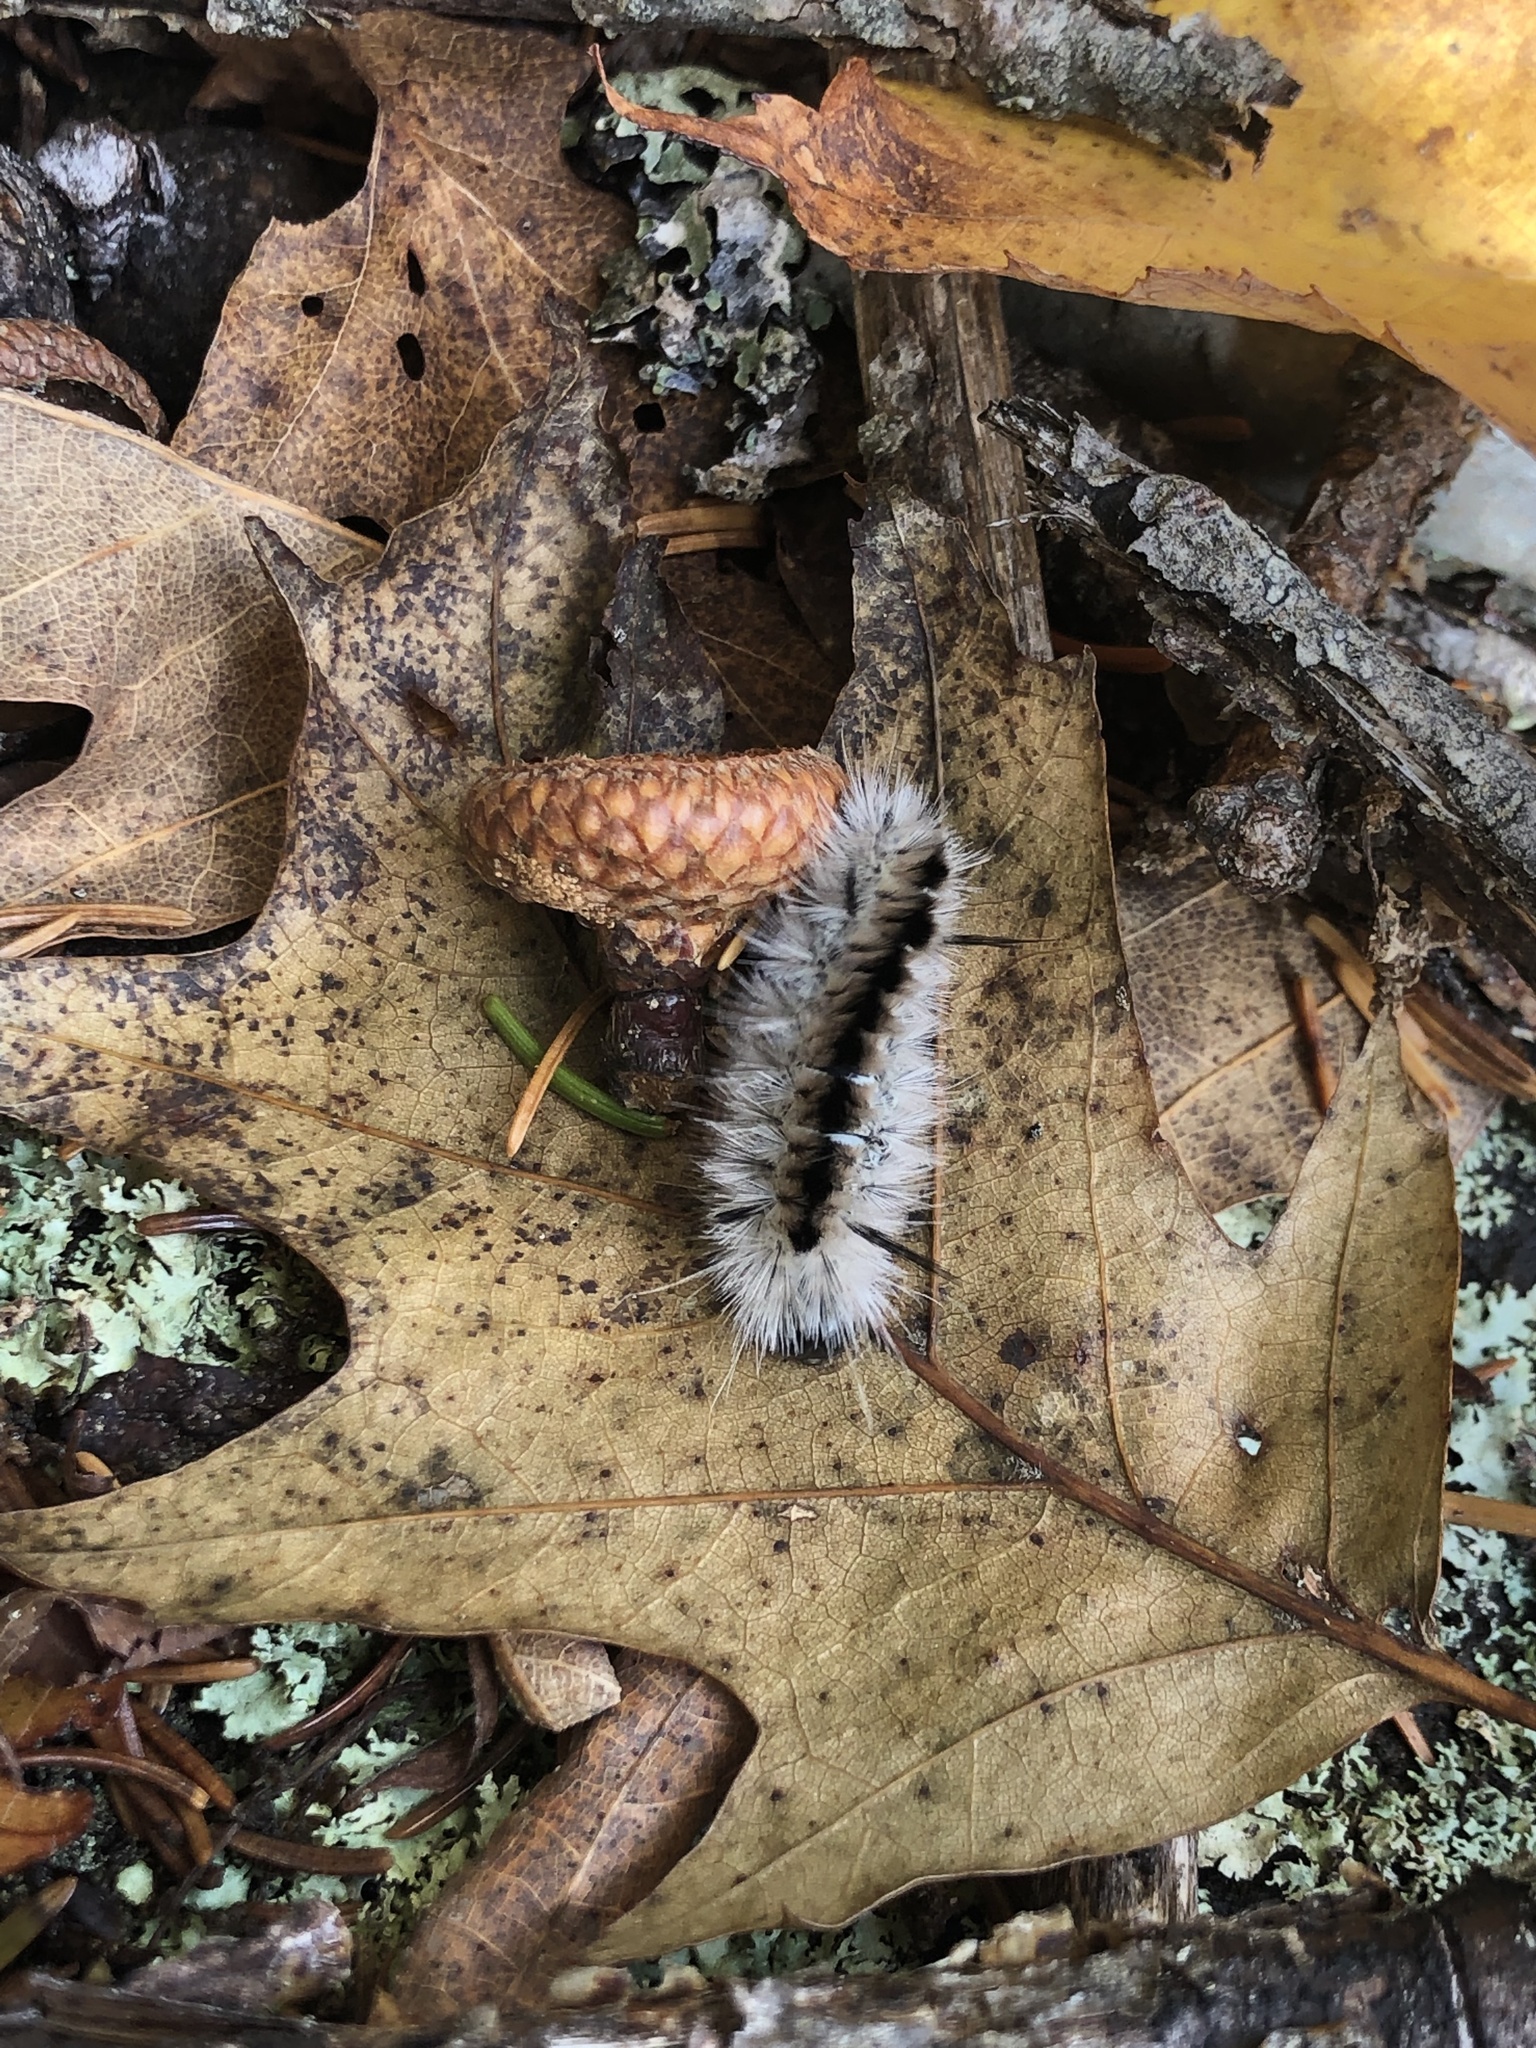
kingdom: Animalia
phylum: Arthropoda
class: Insecta
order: Lepidoptera
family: Erebidae
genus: Lophocampa
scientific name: Lophocampa caryae
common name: Hickory tussock moth
